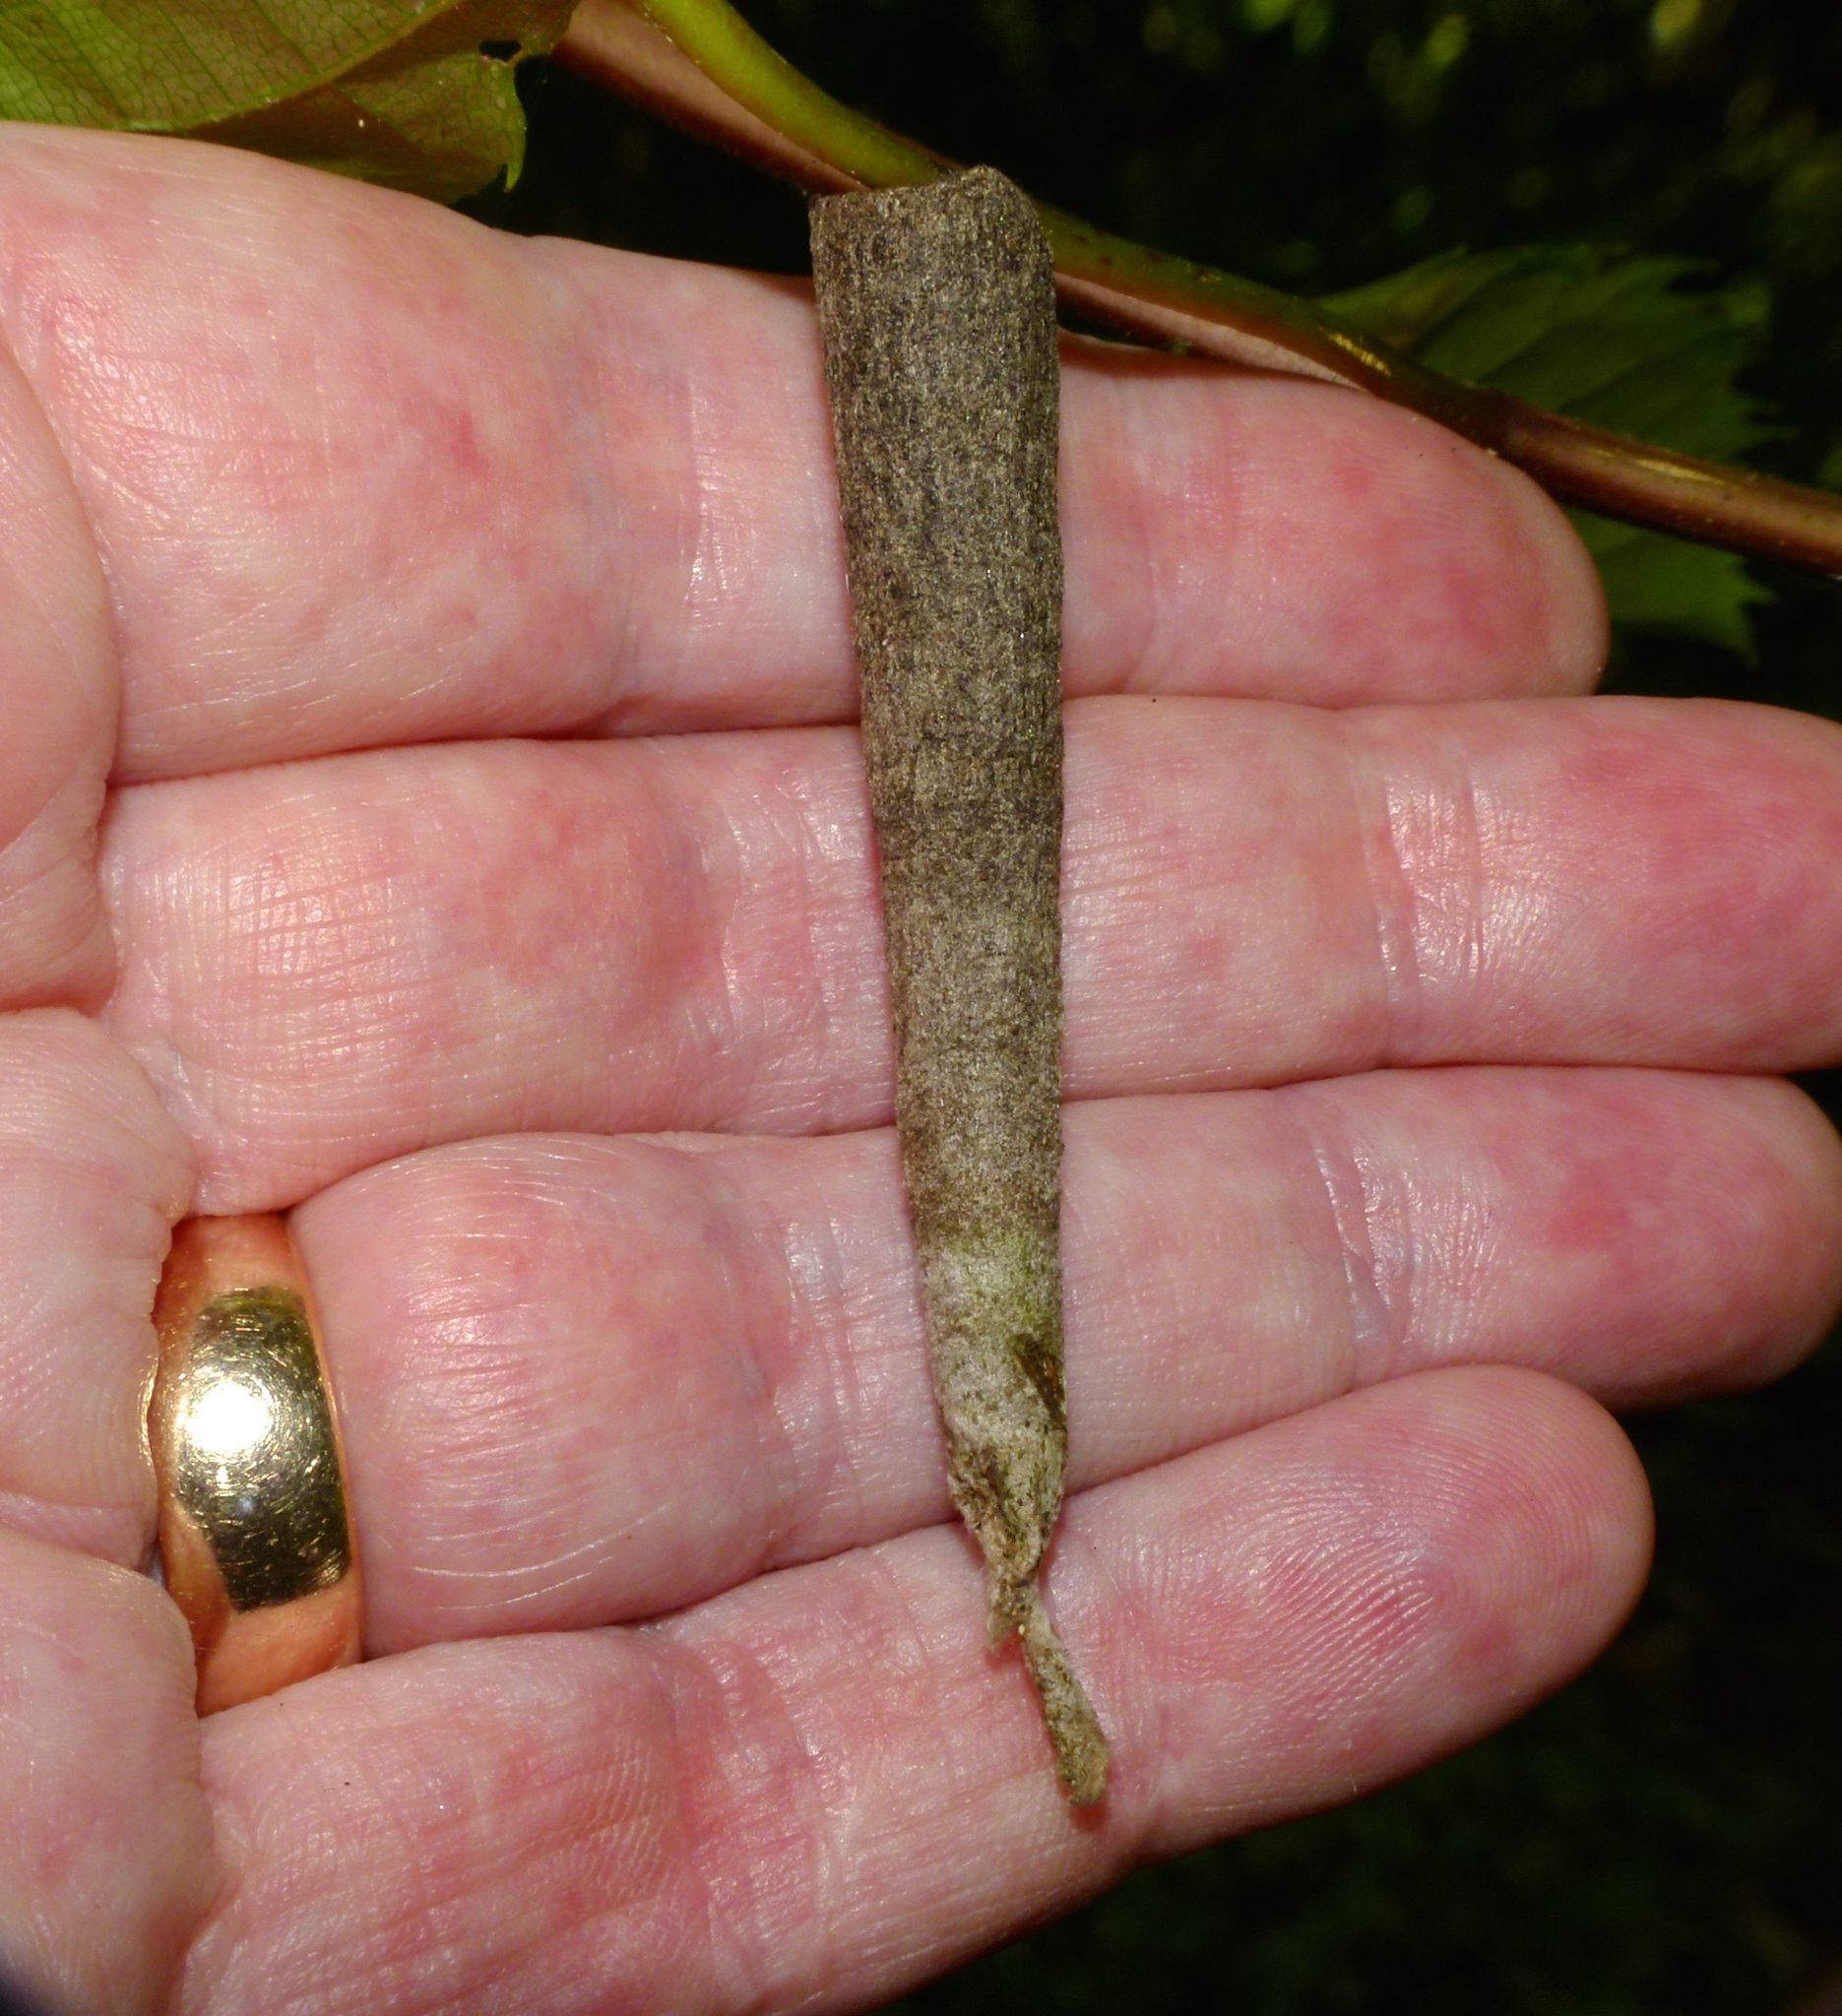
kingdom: Animalia
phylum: Arthropoda
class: Insecta
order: Lepidoptera
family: Psychidae
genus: Liothula
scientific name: Liothula omnivora
